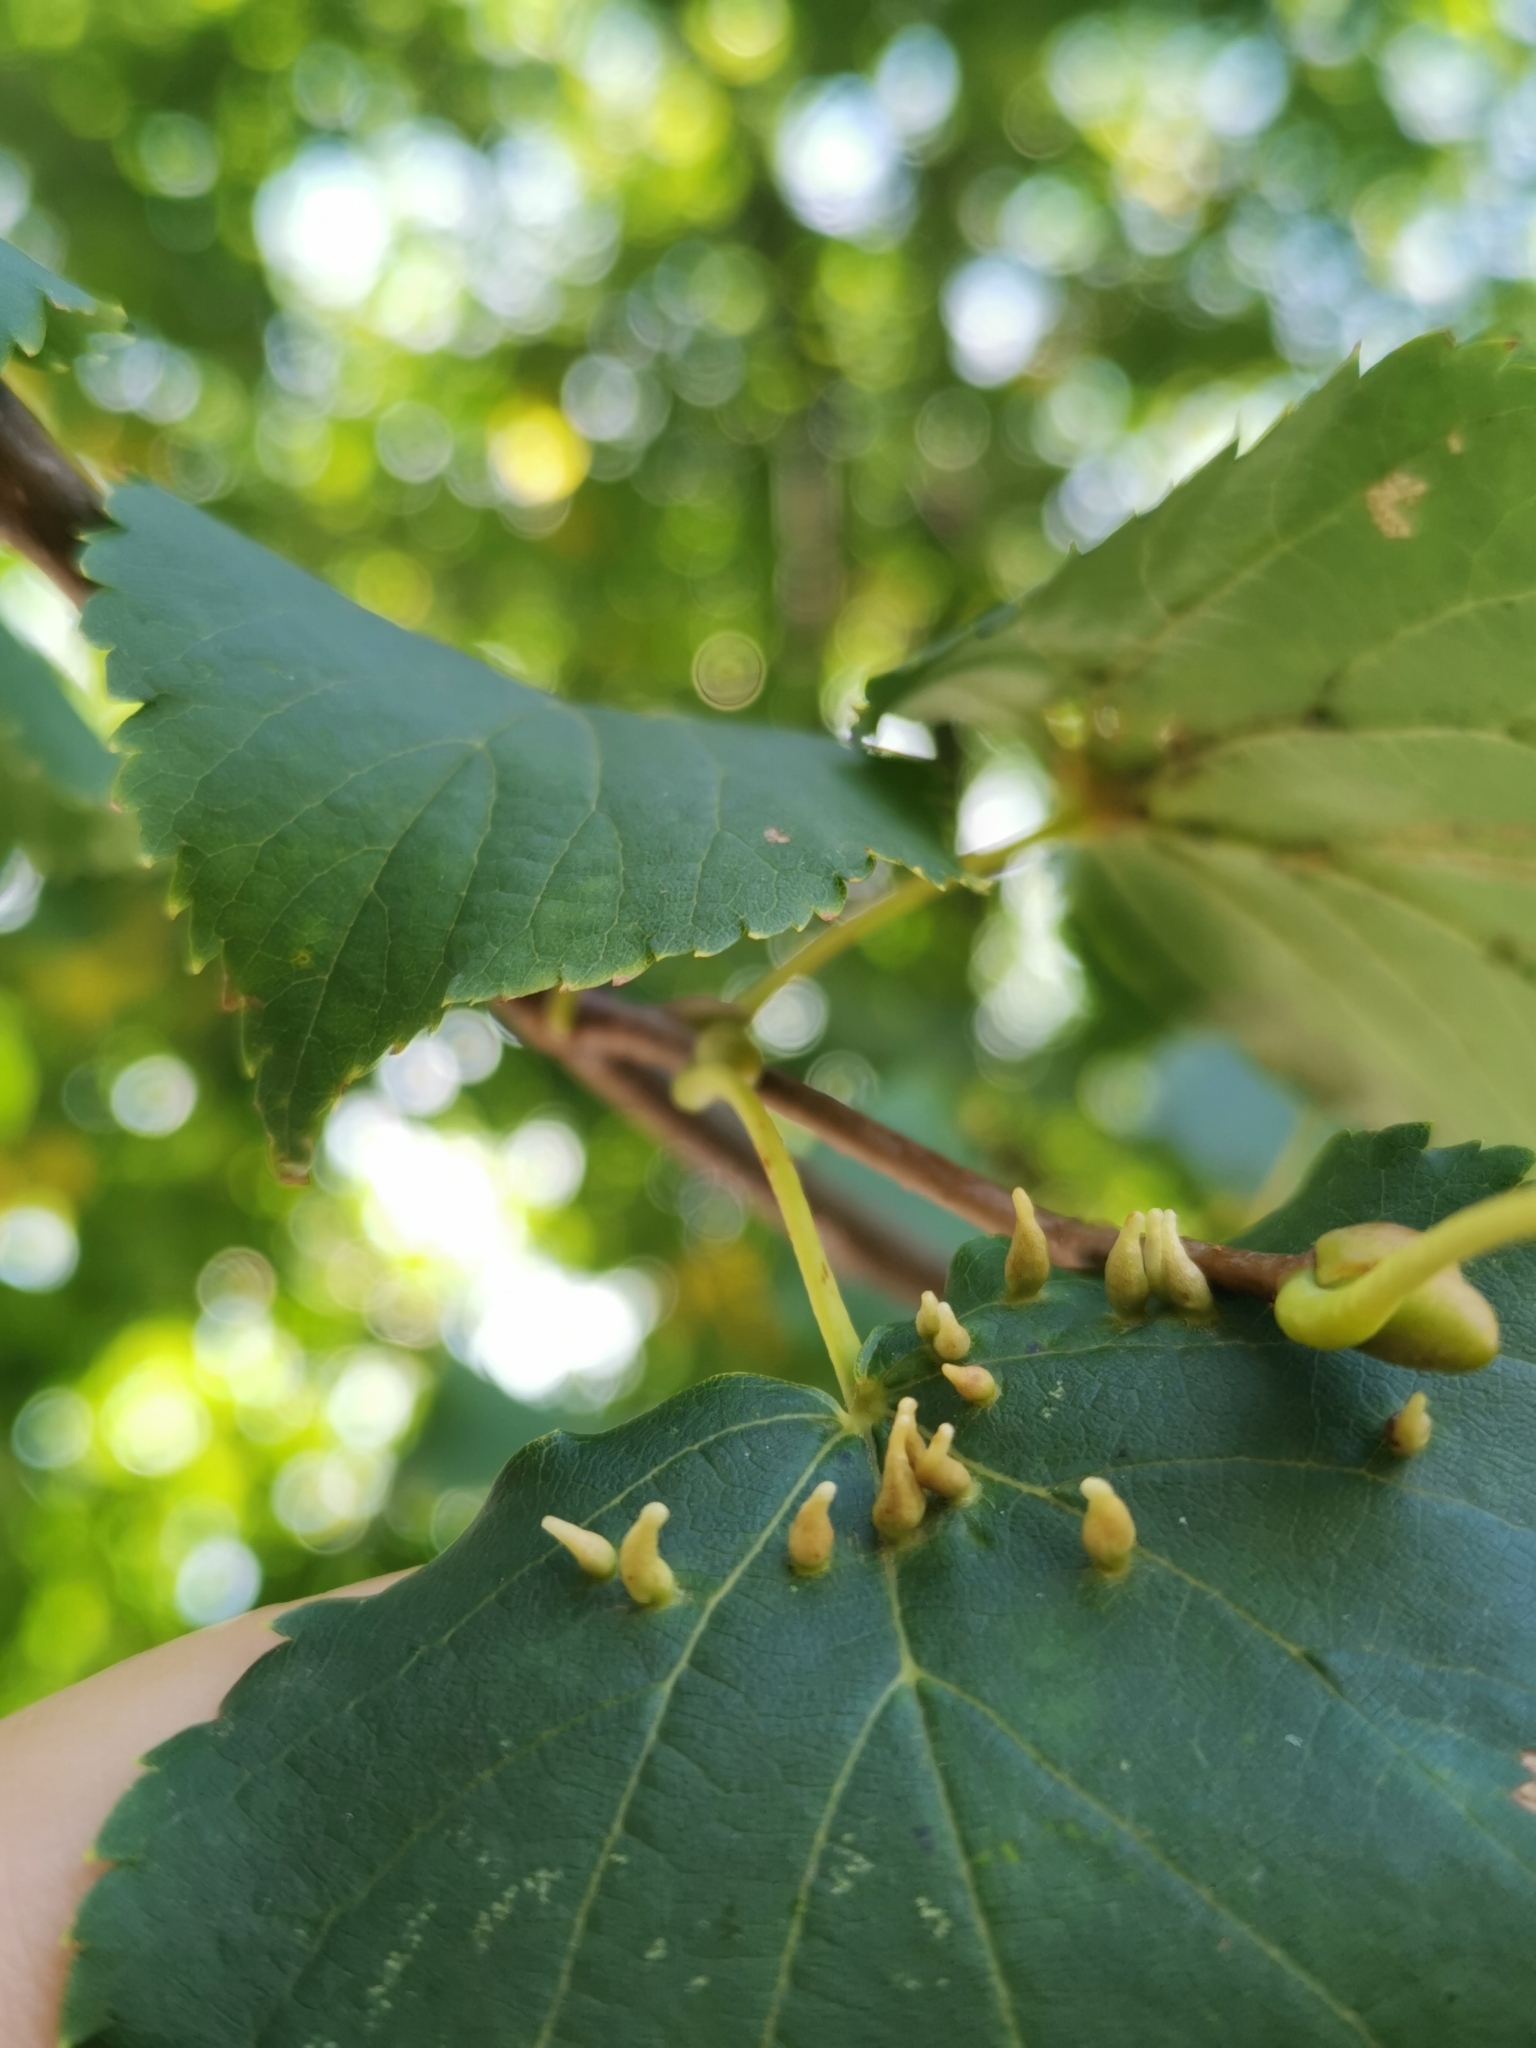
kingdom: Animalia
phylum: Arthropoda
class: Arachnida
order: Trombidiformes
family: Eriophyidae
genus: Eriophyes
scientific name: Eriophyes tiliae
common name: Red nail gall mite
